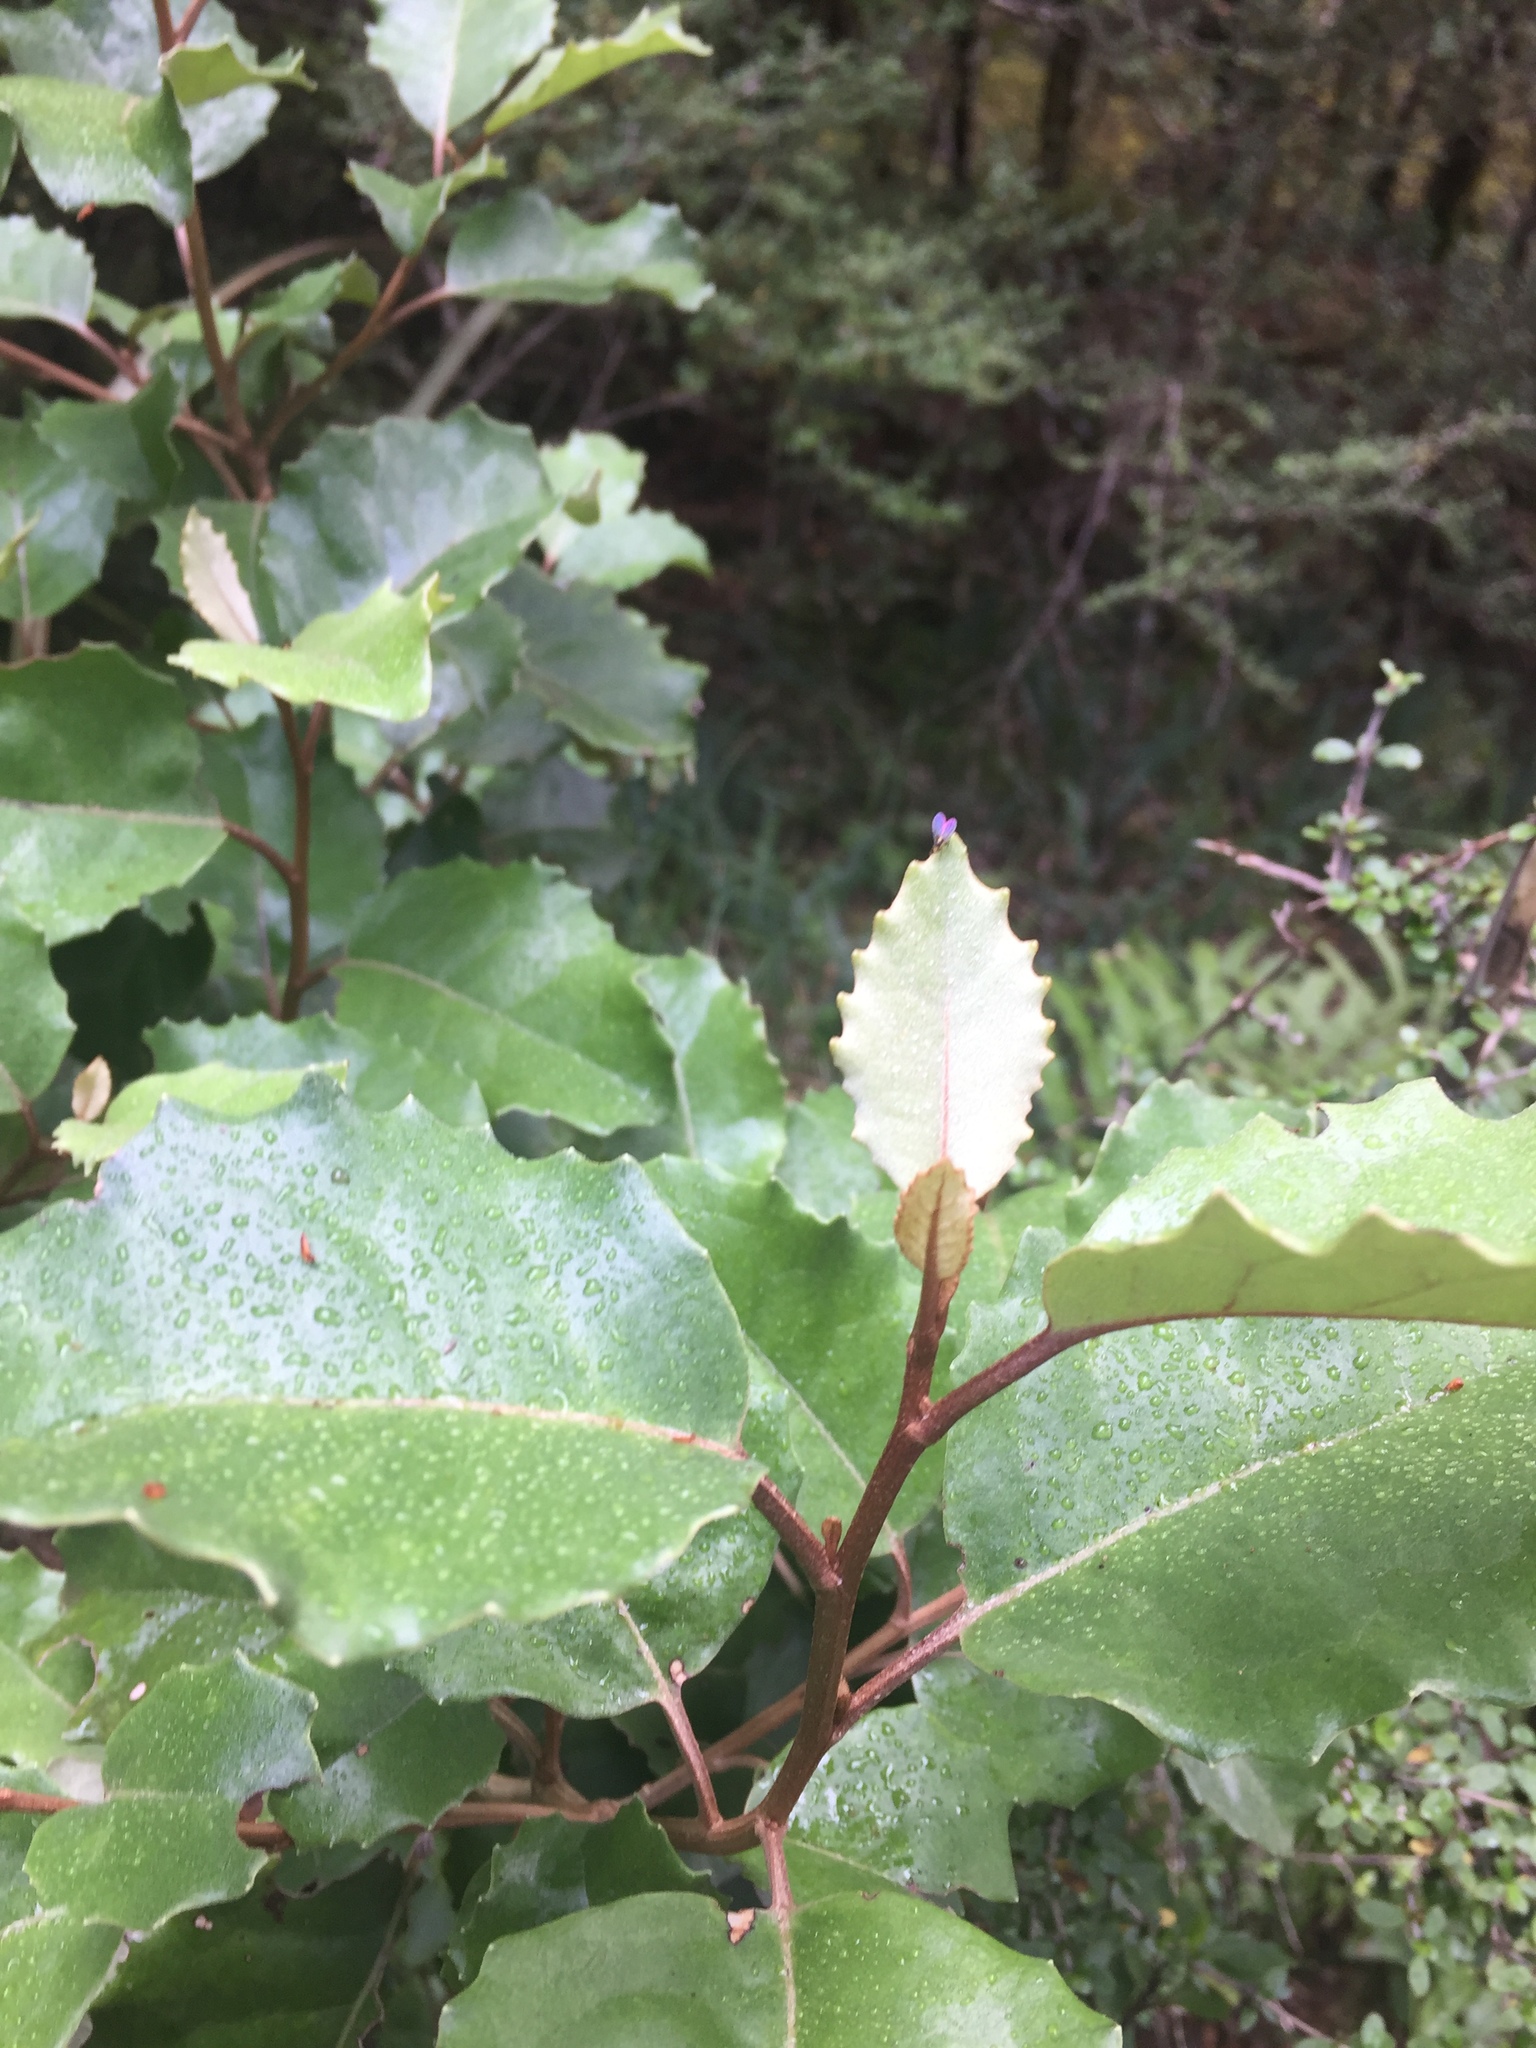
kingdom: Plantae
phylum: Tracheophyta
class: Magnoliopsida
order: Asterales
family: Asteraceae
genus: Olearia
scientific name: Olearia arborescens
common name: Glossy tree daisy
